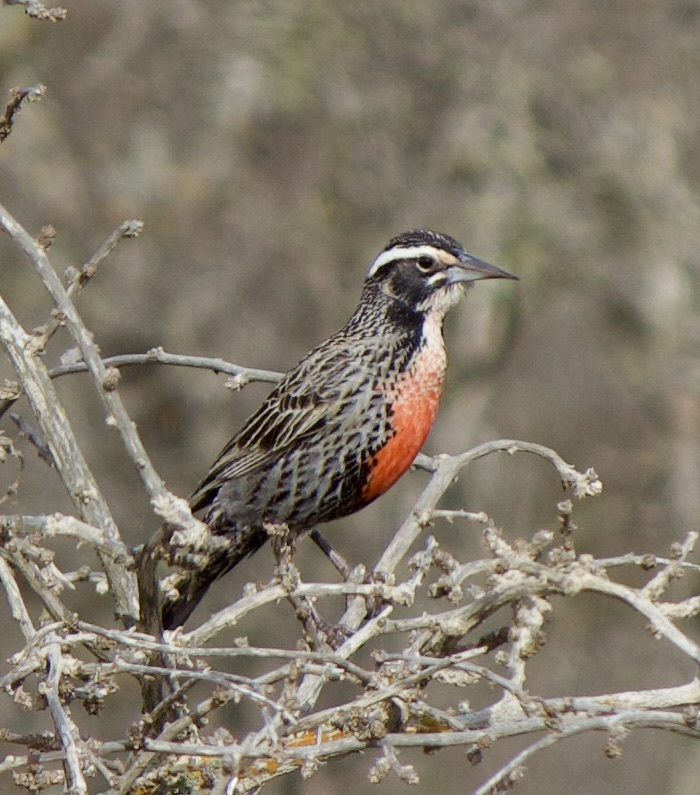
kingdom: Animalia
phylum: Chordata
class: Aves
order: Passeriformes
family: Icteridae
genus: Sturnella
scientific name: Sturnella loyca
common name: Long-tailed meadowlark
